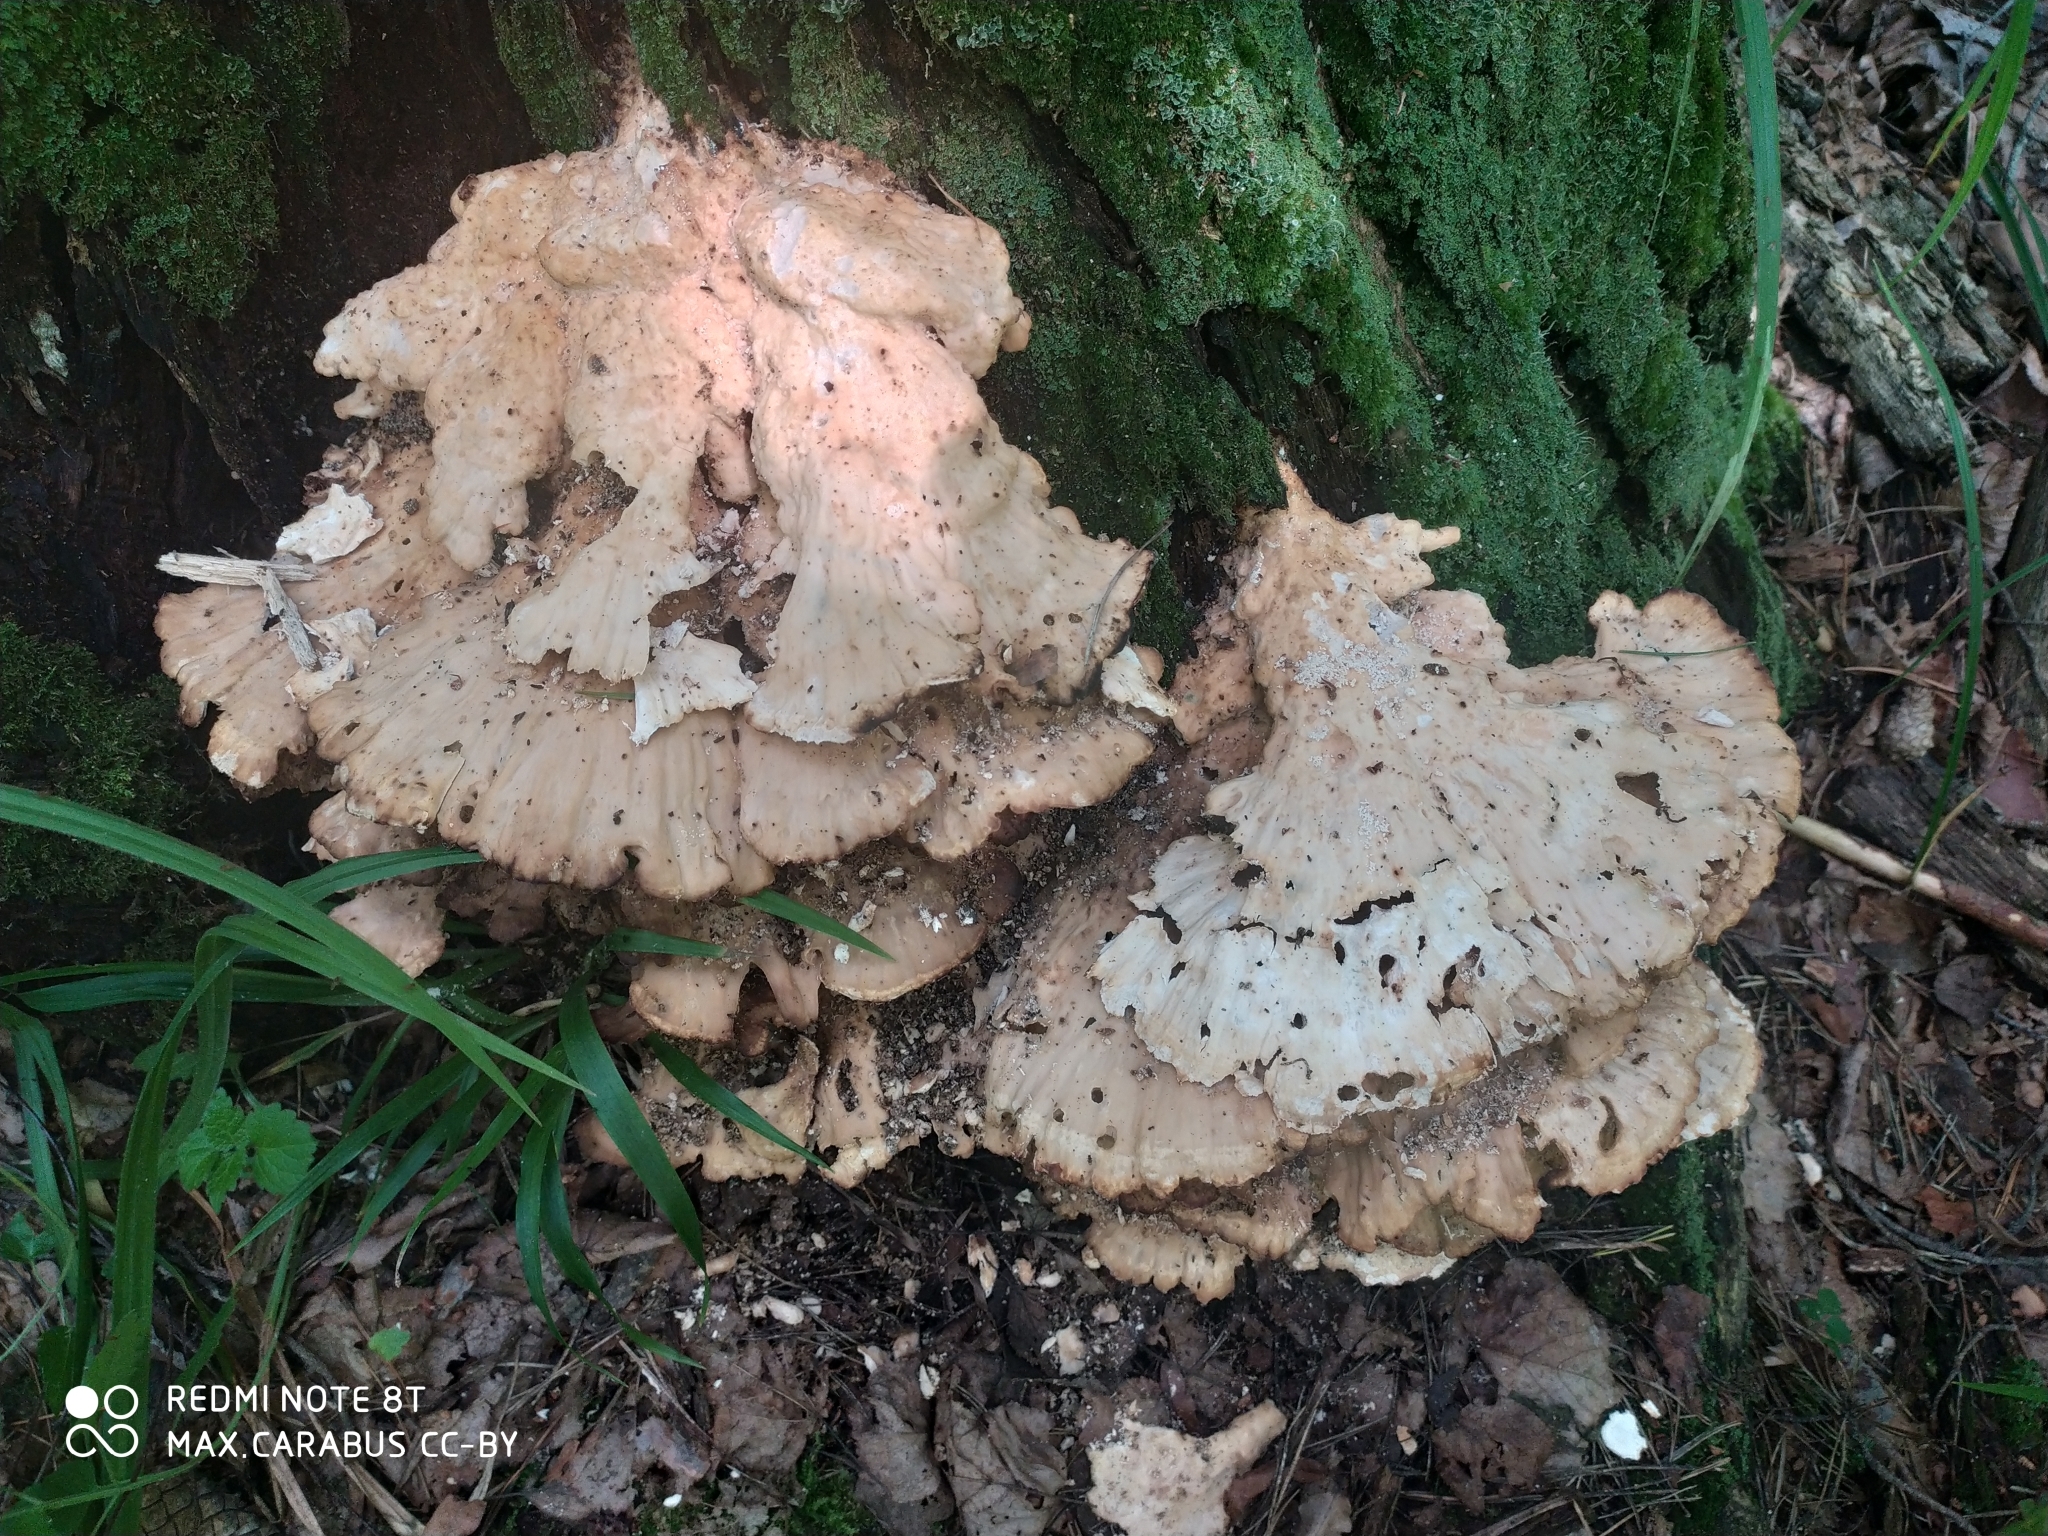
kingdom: Fungi
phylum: Basidiomycota
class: Agaricomycetes
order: Polyporales
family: Laetiporaceae
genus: Laetiporus
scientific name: Laetiporus sulphureus
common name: Chicken of the woods
